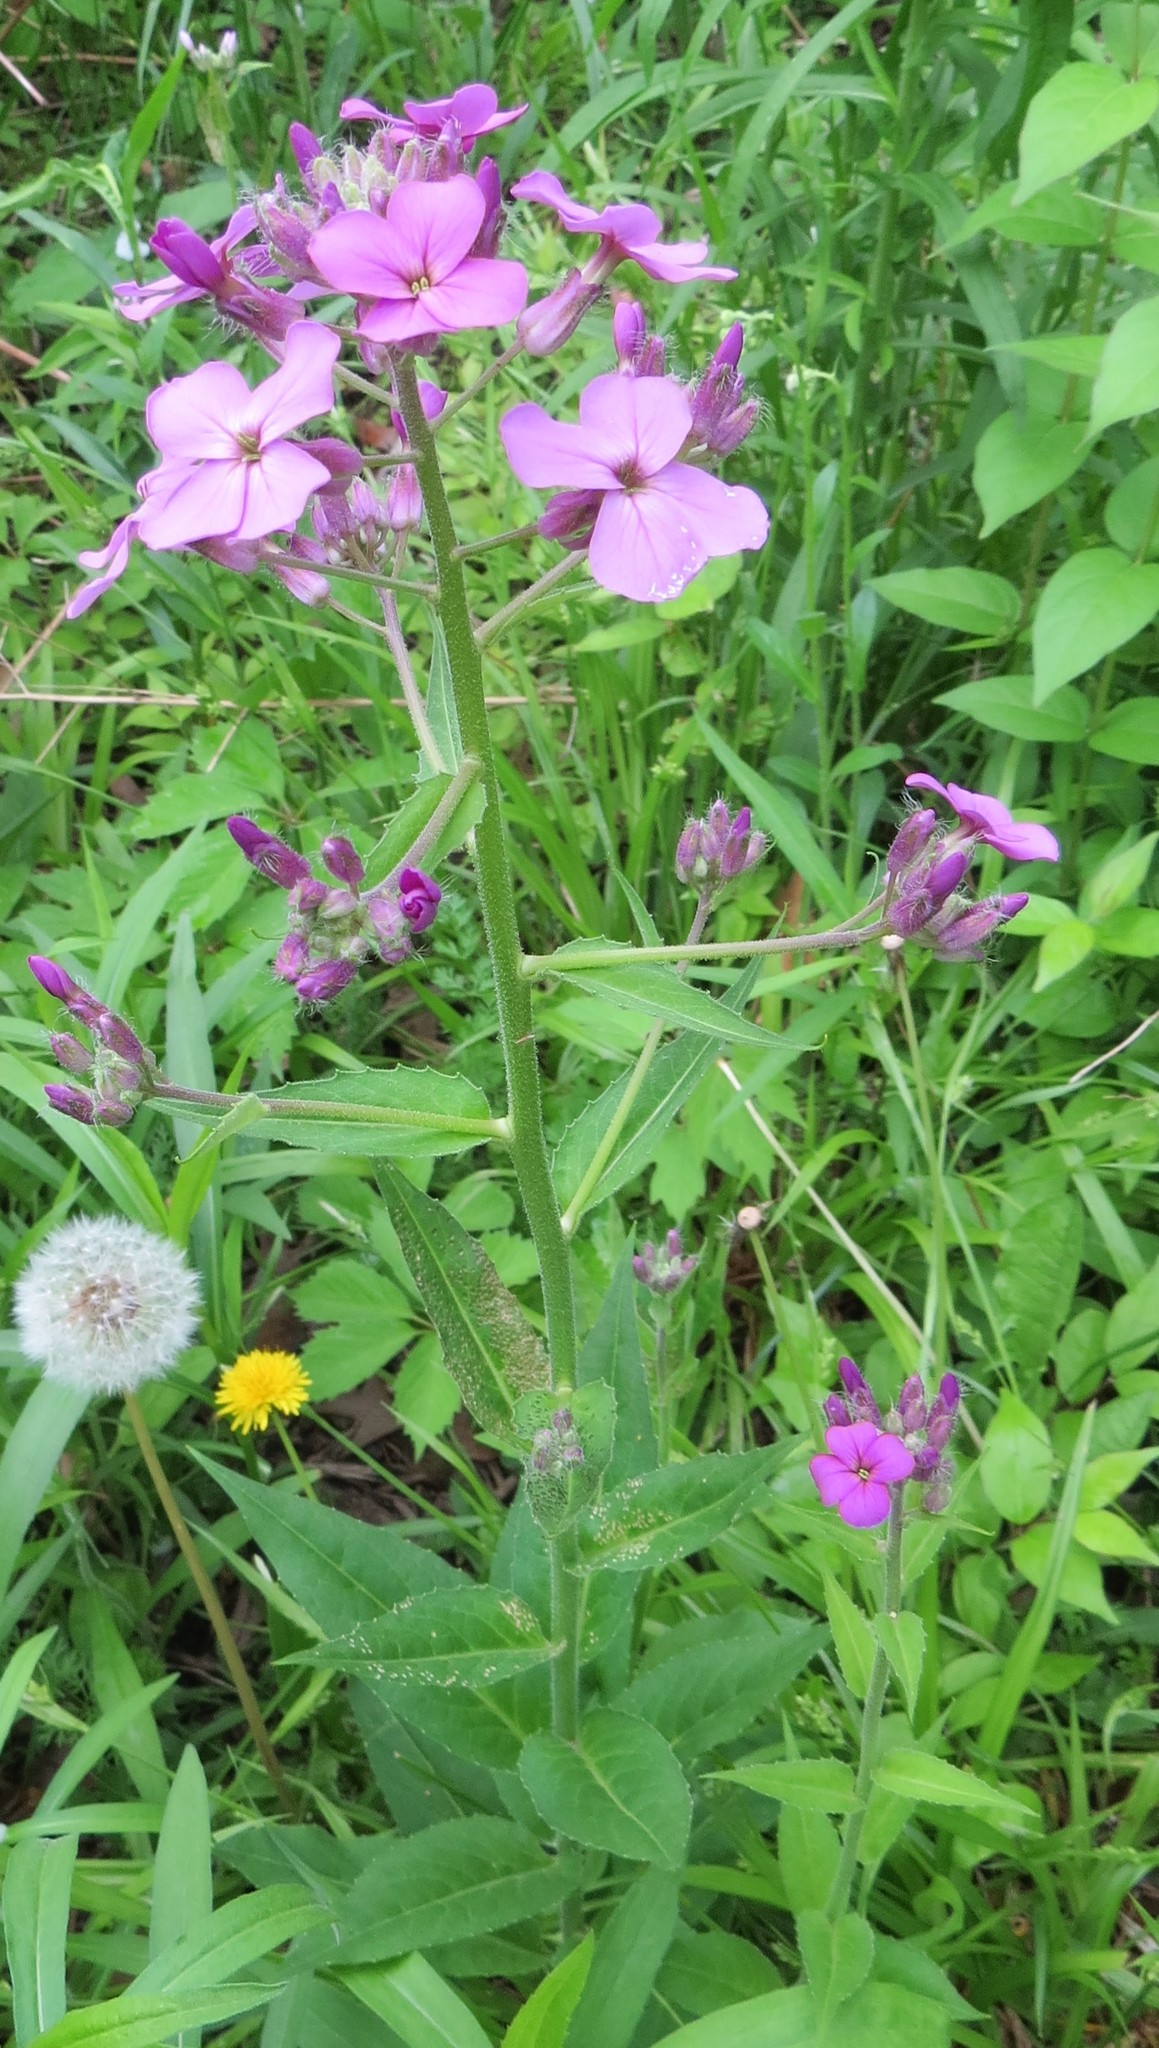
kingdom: Plantae
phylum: Tracheophyta
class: Magnoliopsida
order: Brassicales
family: Brassicaceae
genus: Hesperis
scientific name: Hesperis matronalis
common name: Dame's-violet
